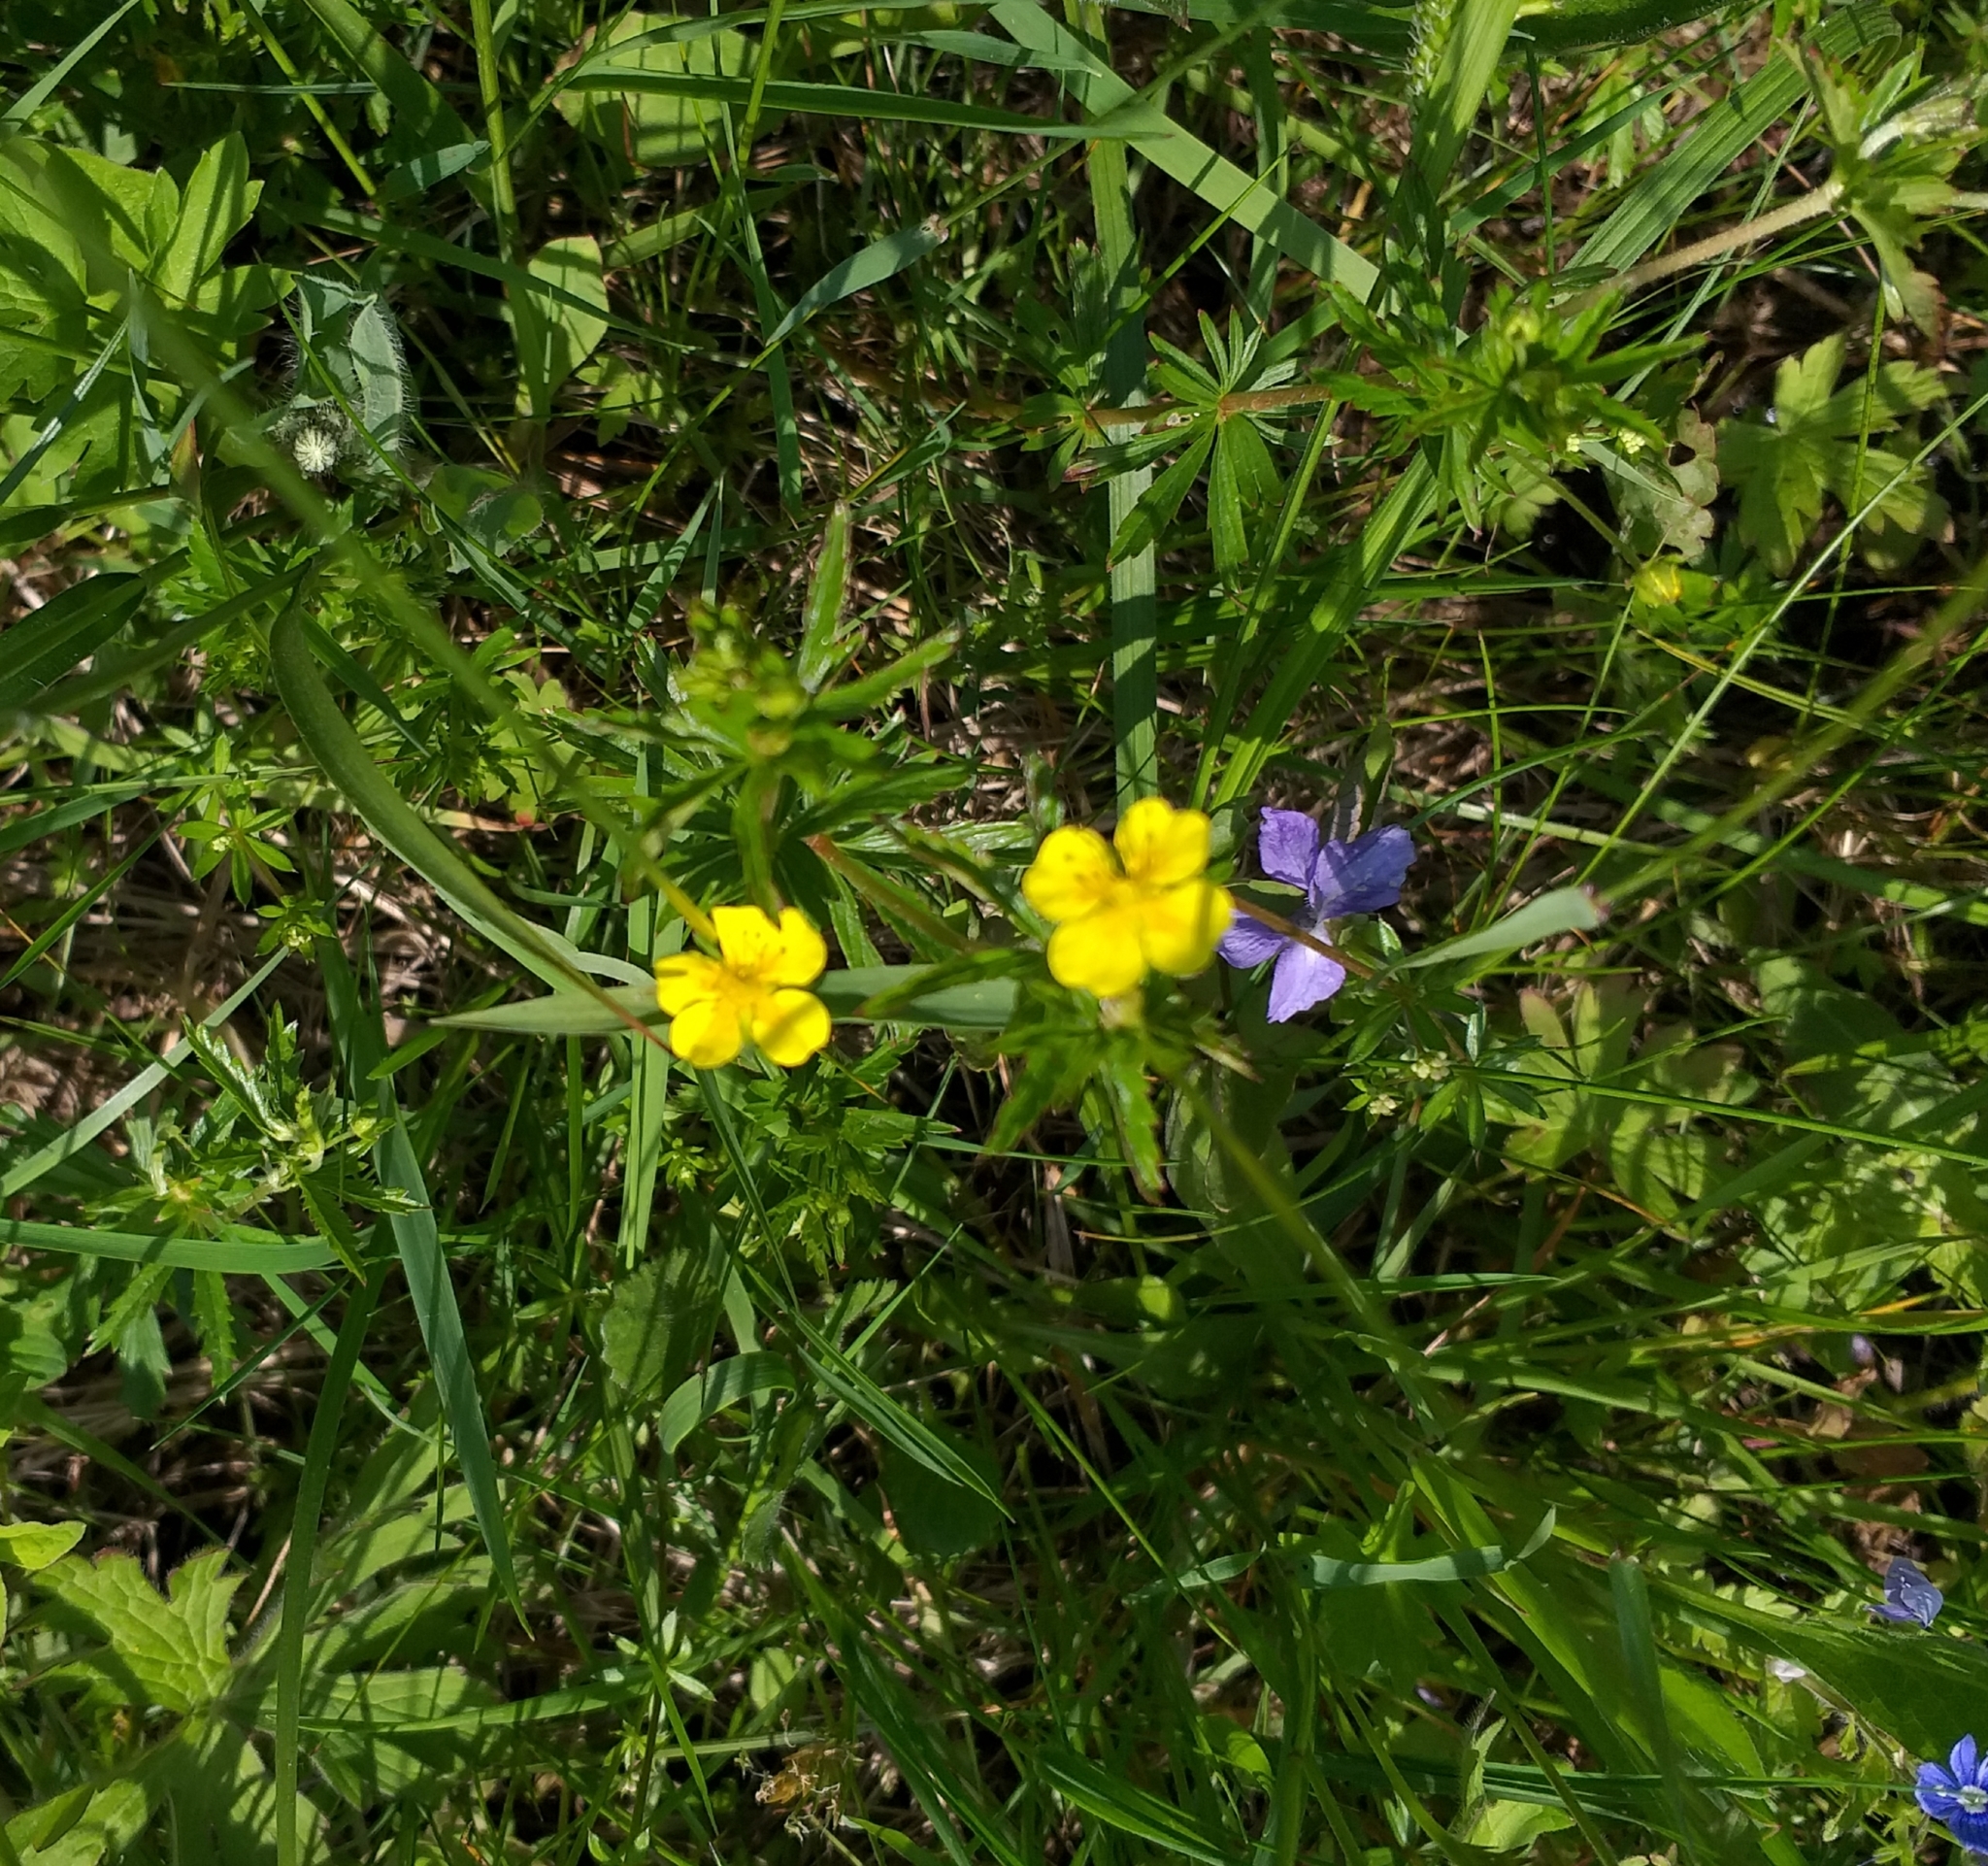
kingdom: Plantae
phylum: Tracheophyta
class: Magnoliopsida
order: Rosales
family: Rosaceae
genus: Potentilla
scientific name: Potentilla erecta
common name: Tormentil
